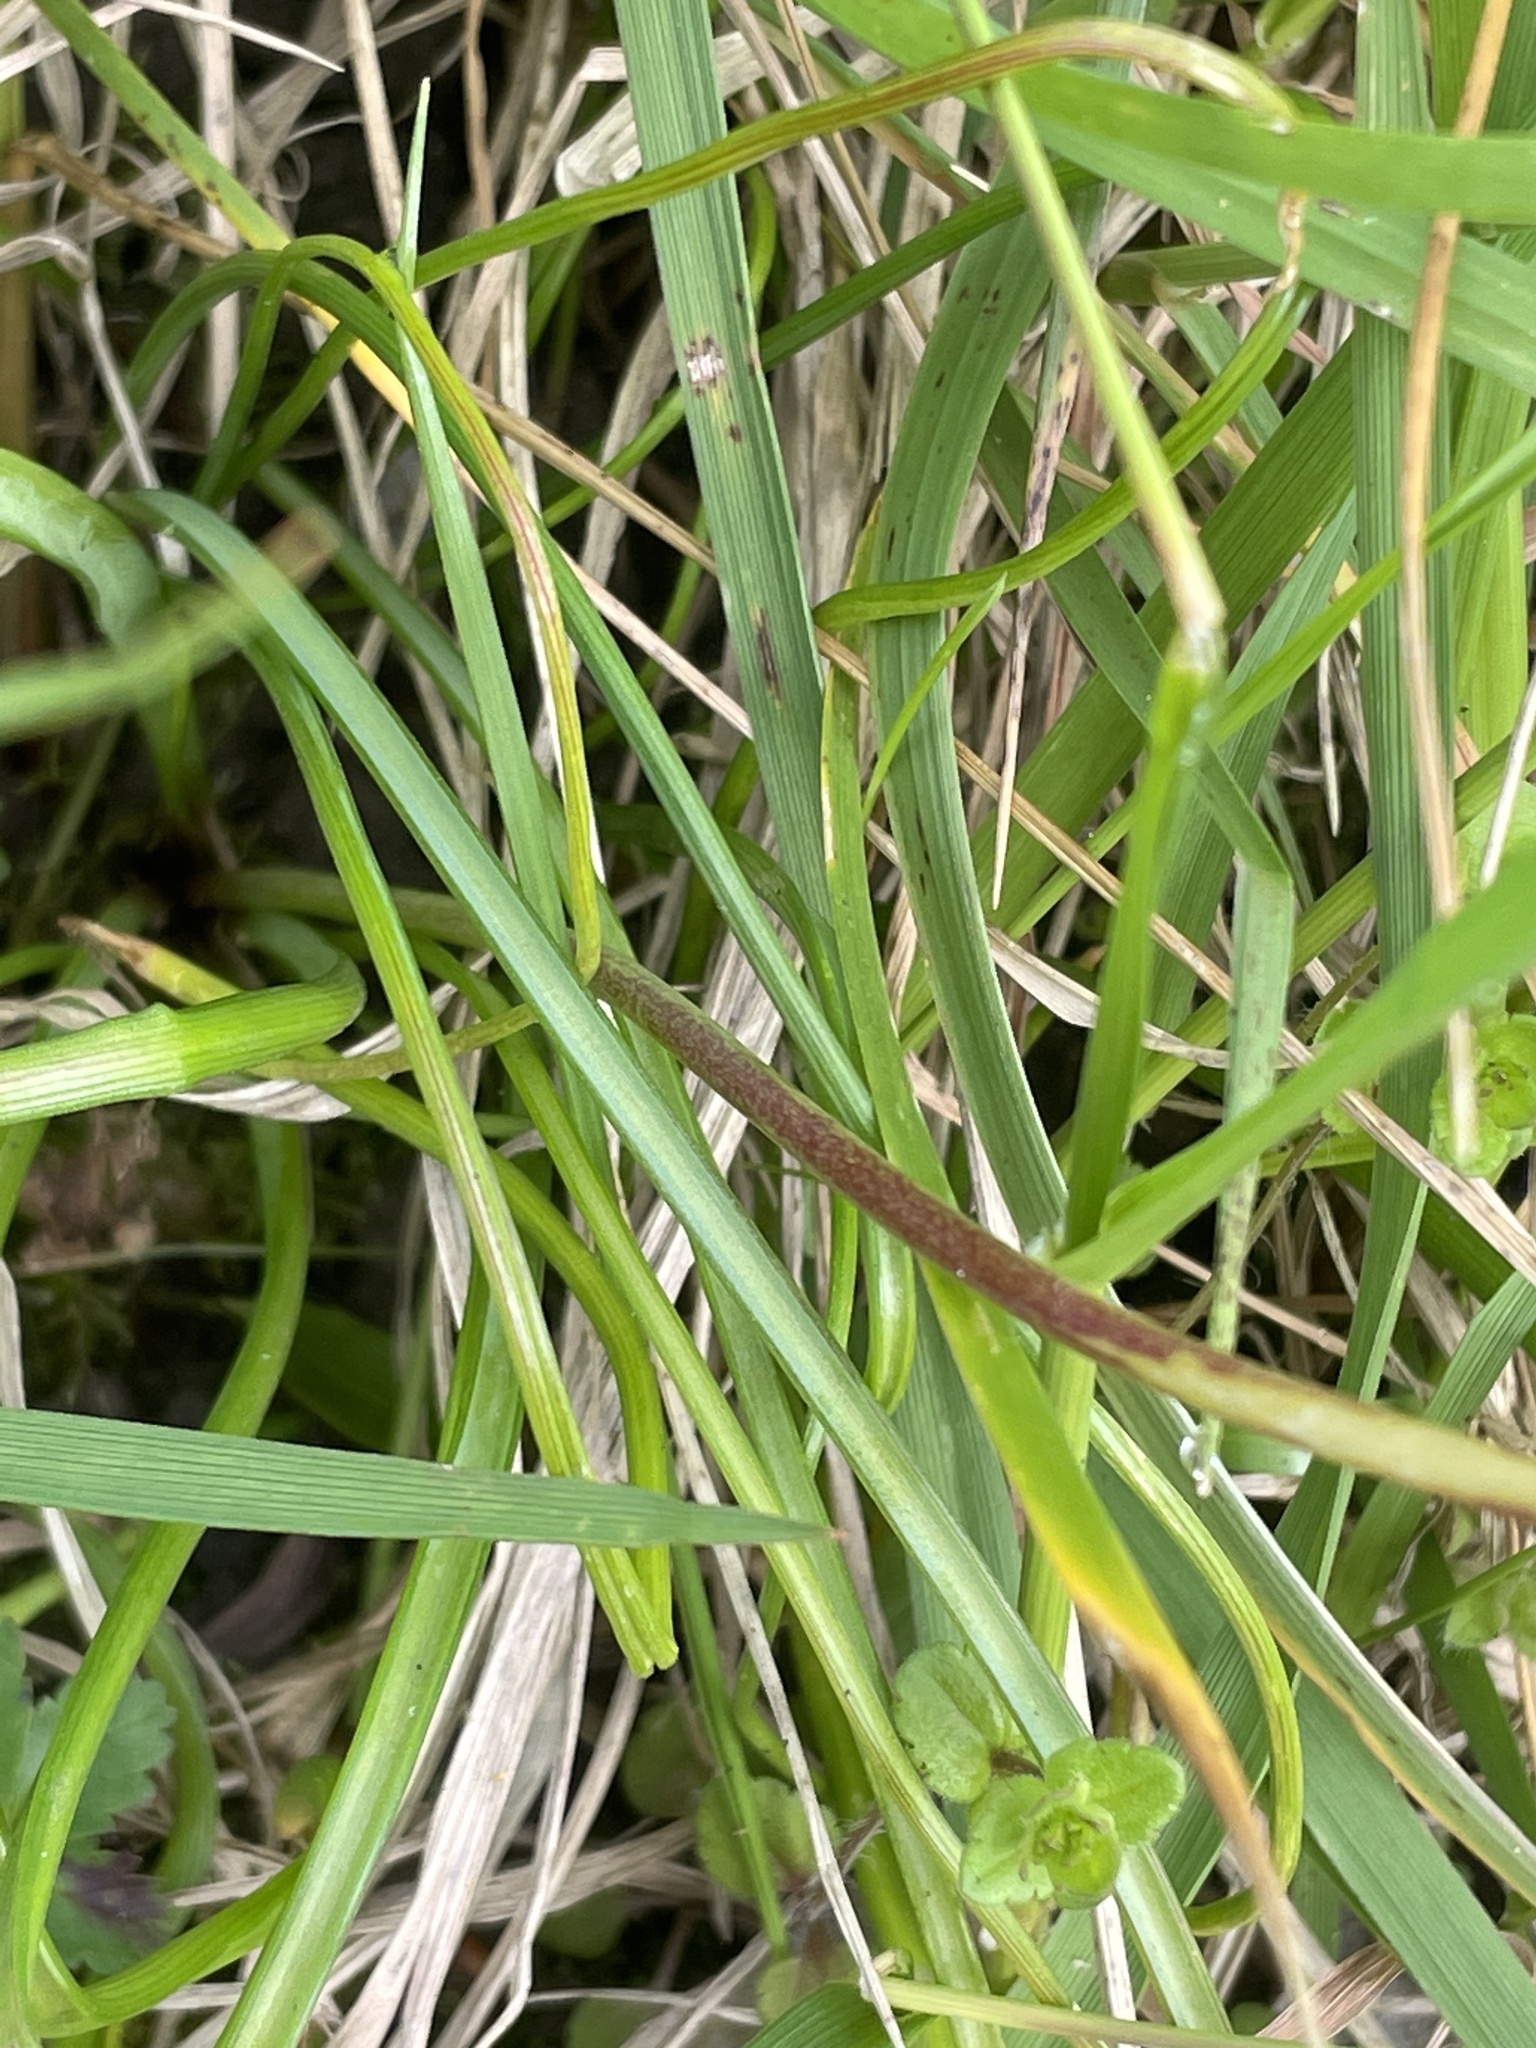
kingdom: Plantae
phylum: Tracheophyta
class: Liliopsida
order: Asparagales
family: Asparagaceae
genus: Muscari
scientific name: Muscari armeniacum
